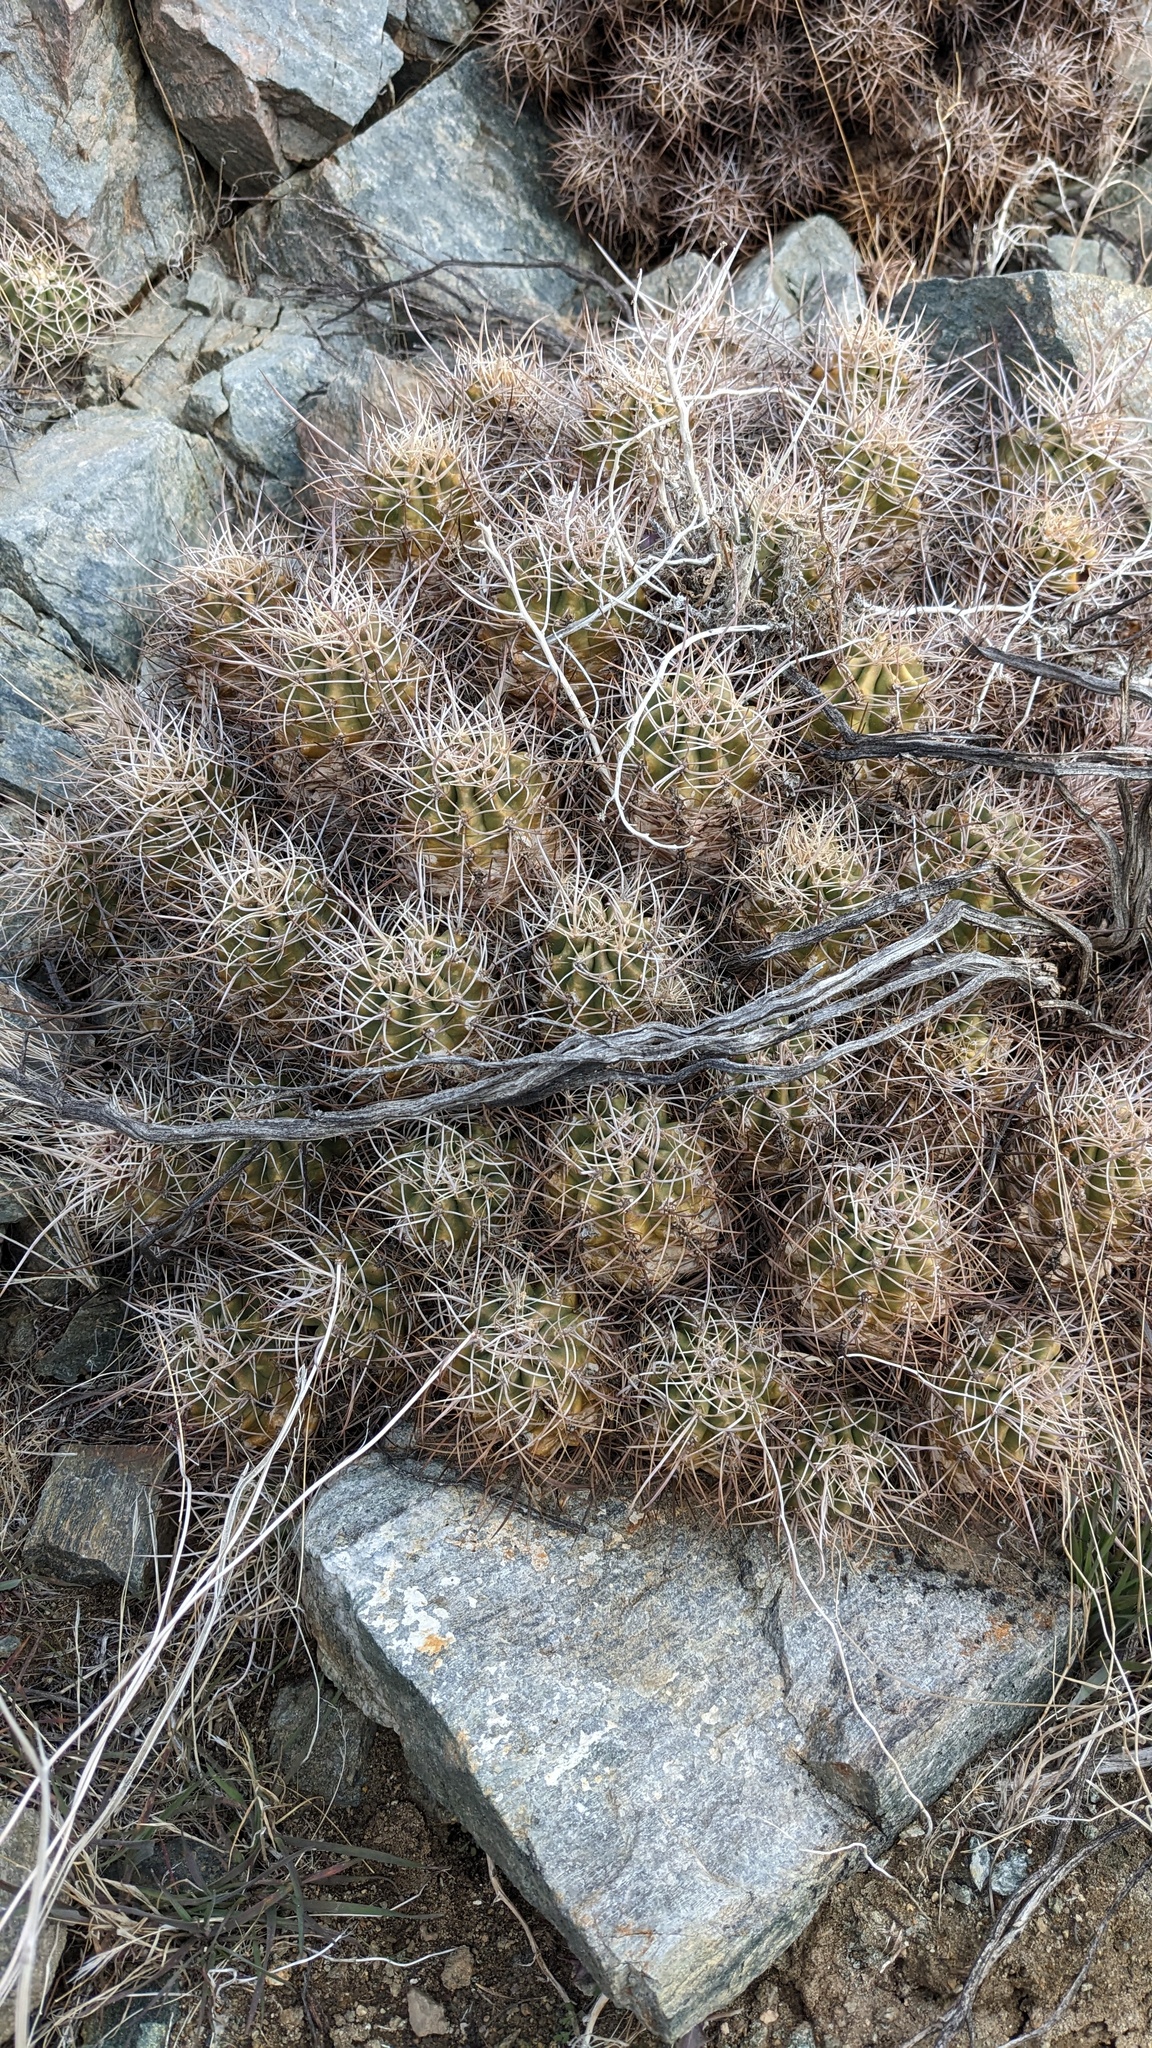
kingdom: Plantae
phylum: Tracheophyta
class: Magnoliopsida
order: Caryophyllales
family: Cactaceae
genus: Echinocereus
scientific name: Echinocereus triglochidiatus
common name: Claretcup hedgehog
